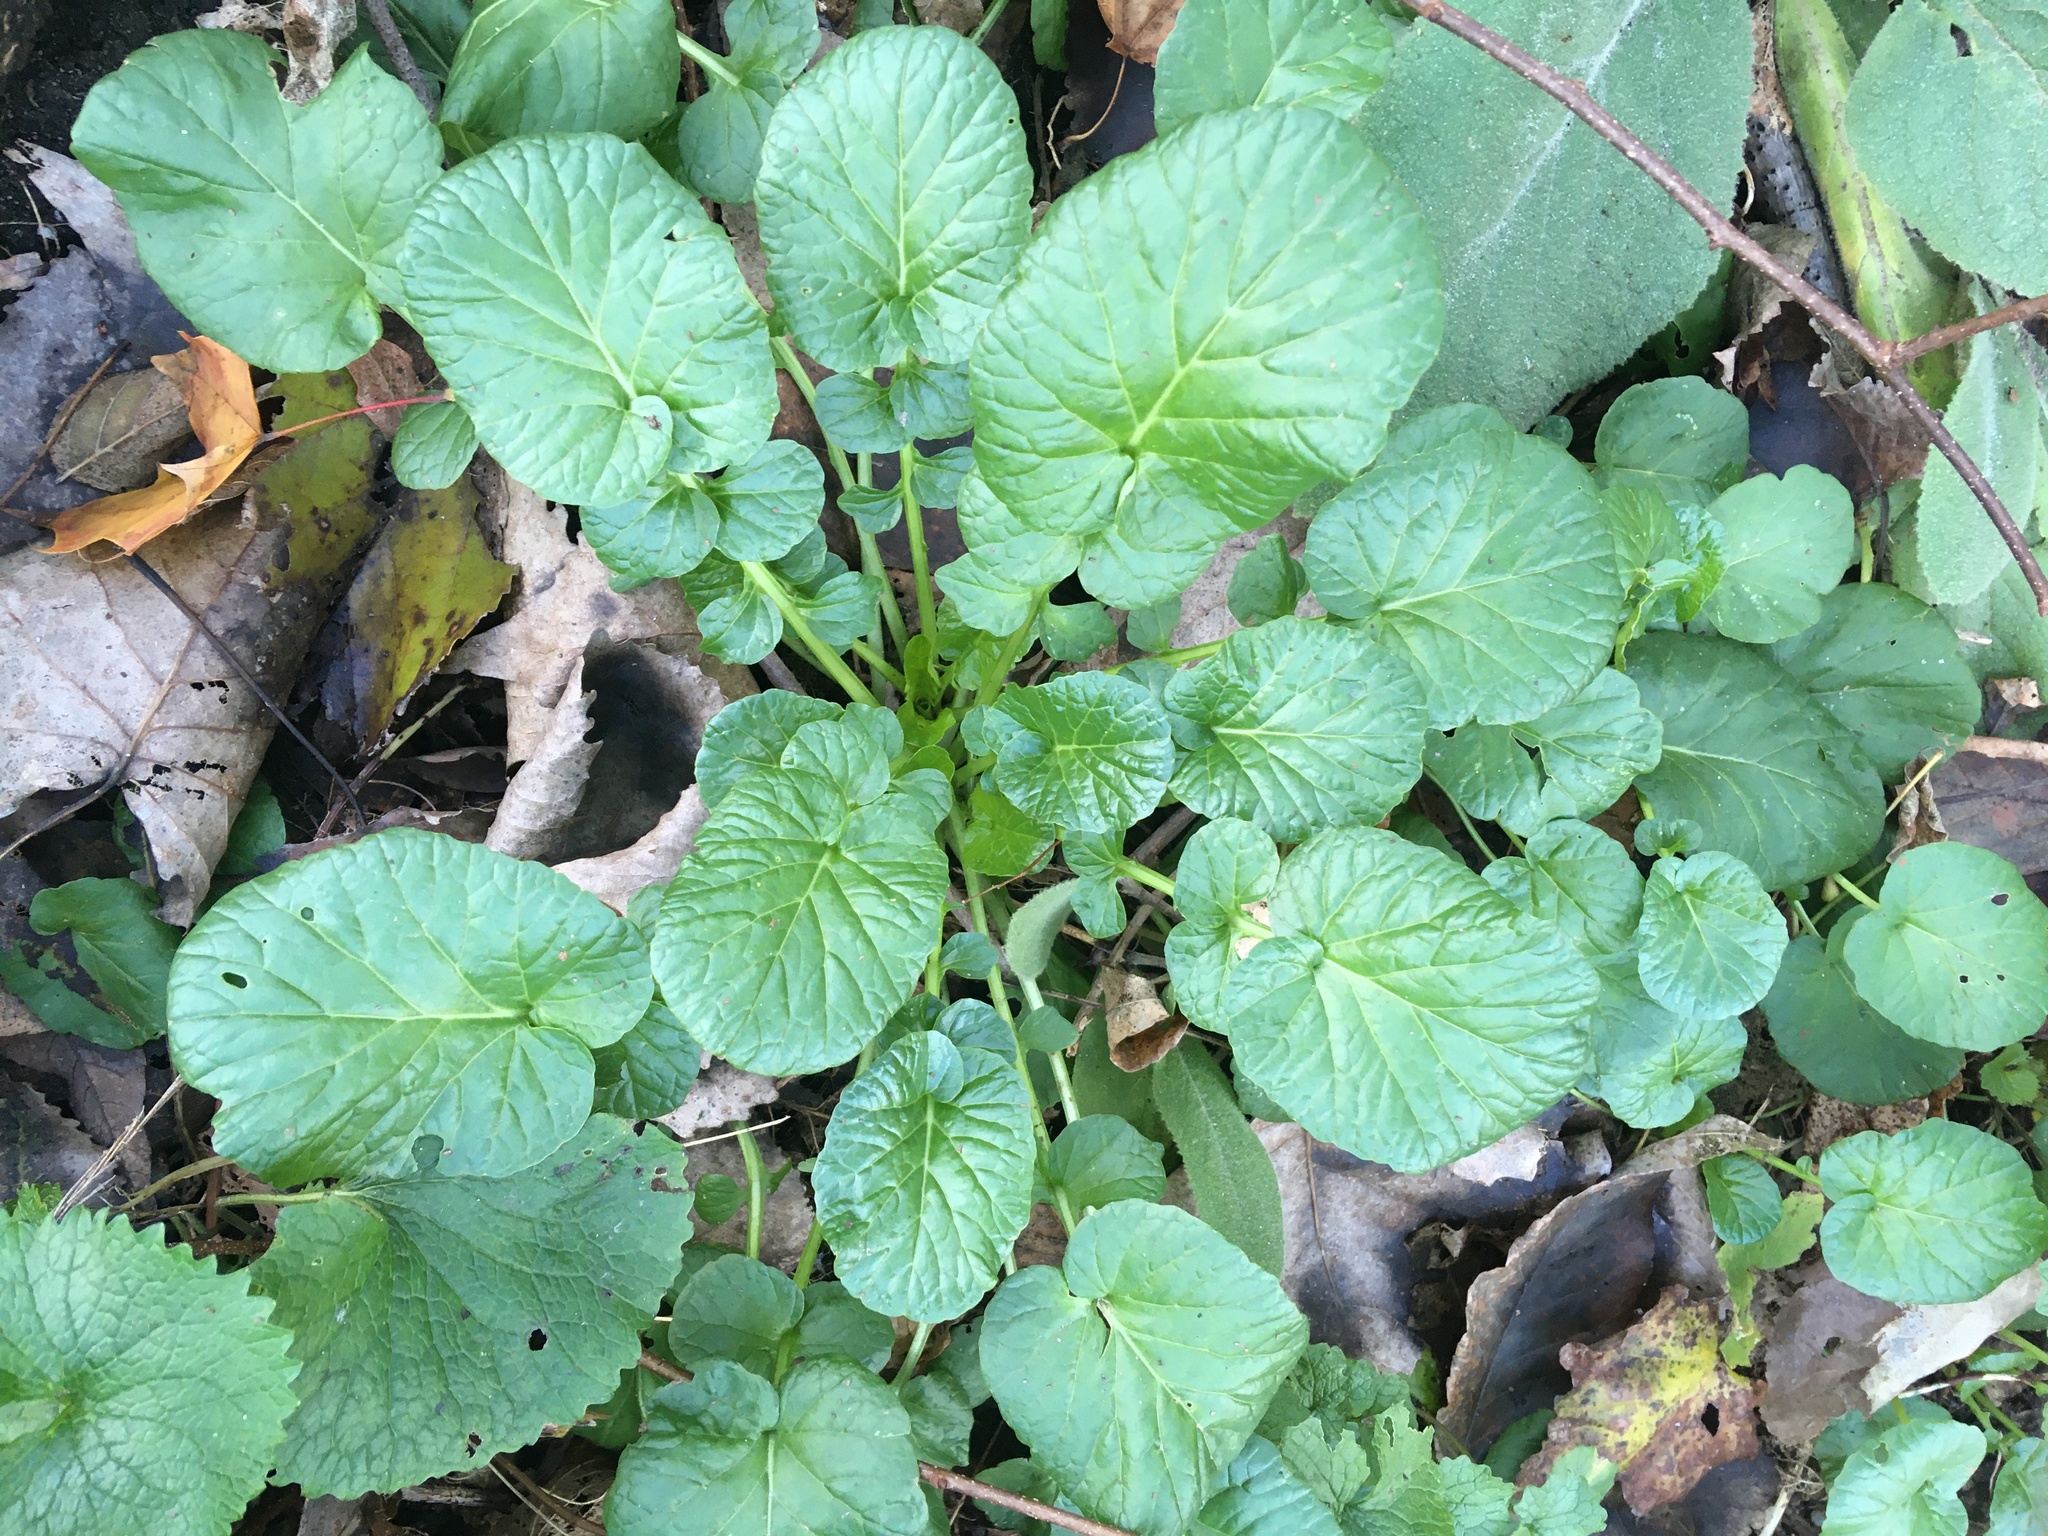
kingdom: Plantae
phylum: Tracheophyta
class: Magnoliopsida
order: Brassicales
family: Brassicaceae
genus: Barbarea
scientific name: Barbarea vulgaris
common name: Cressy-greens
